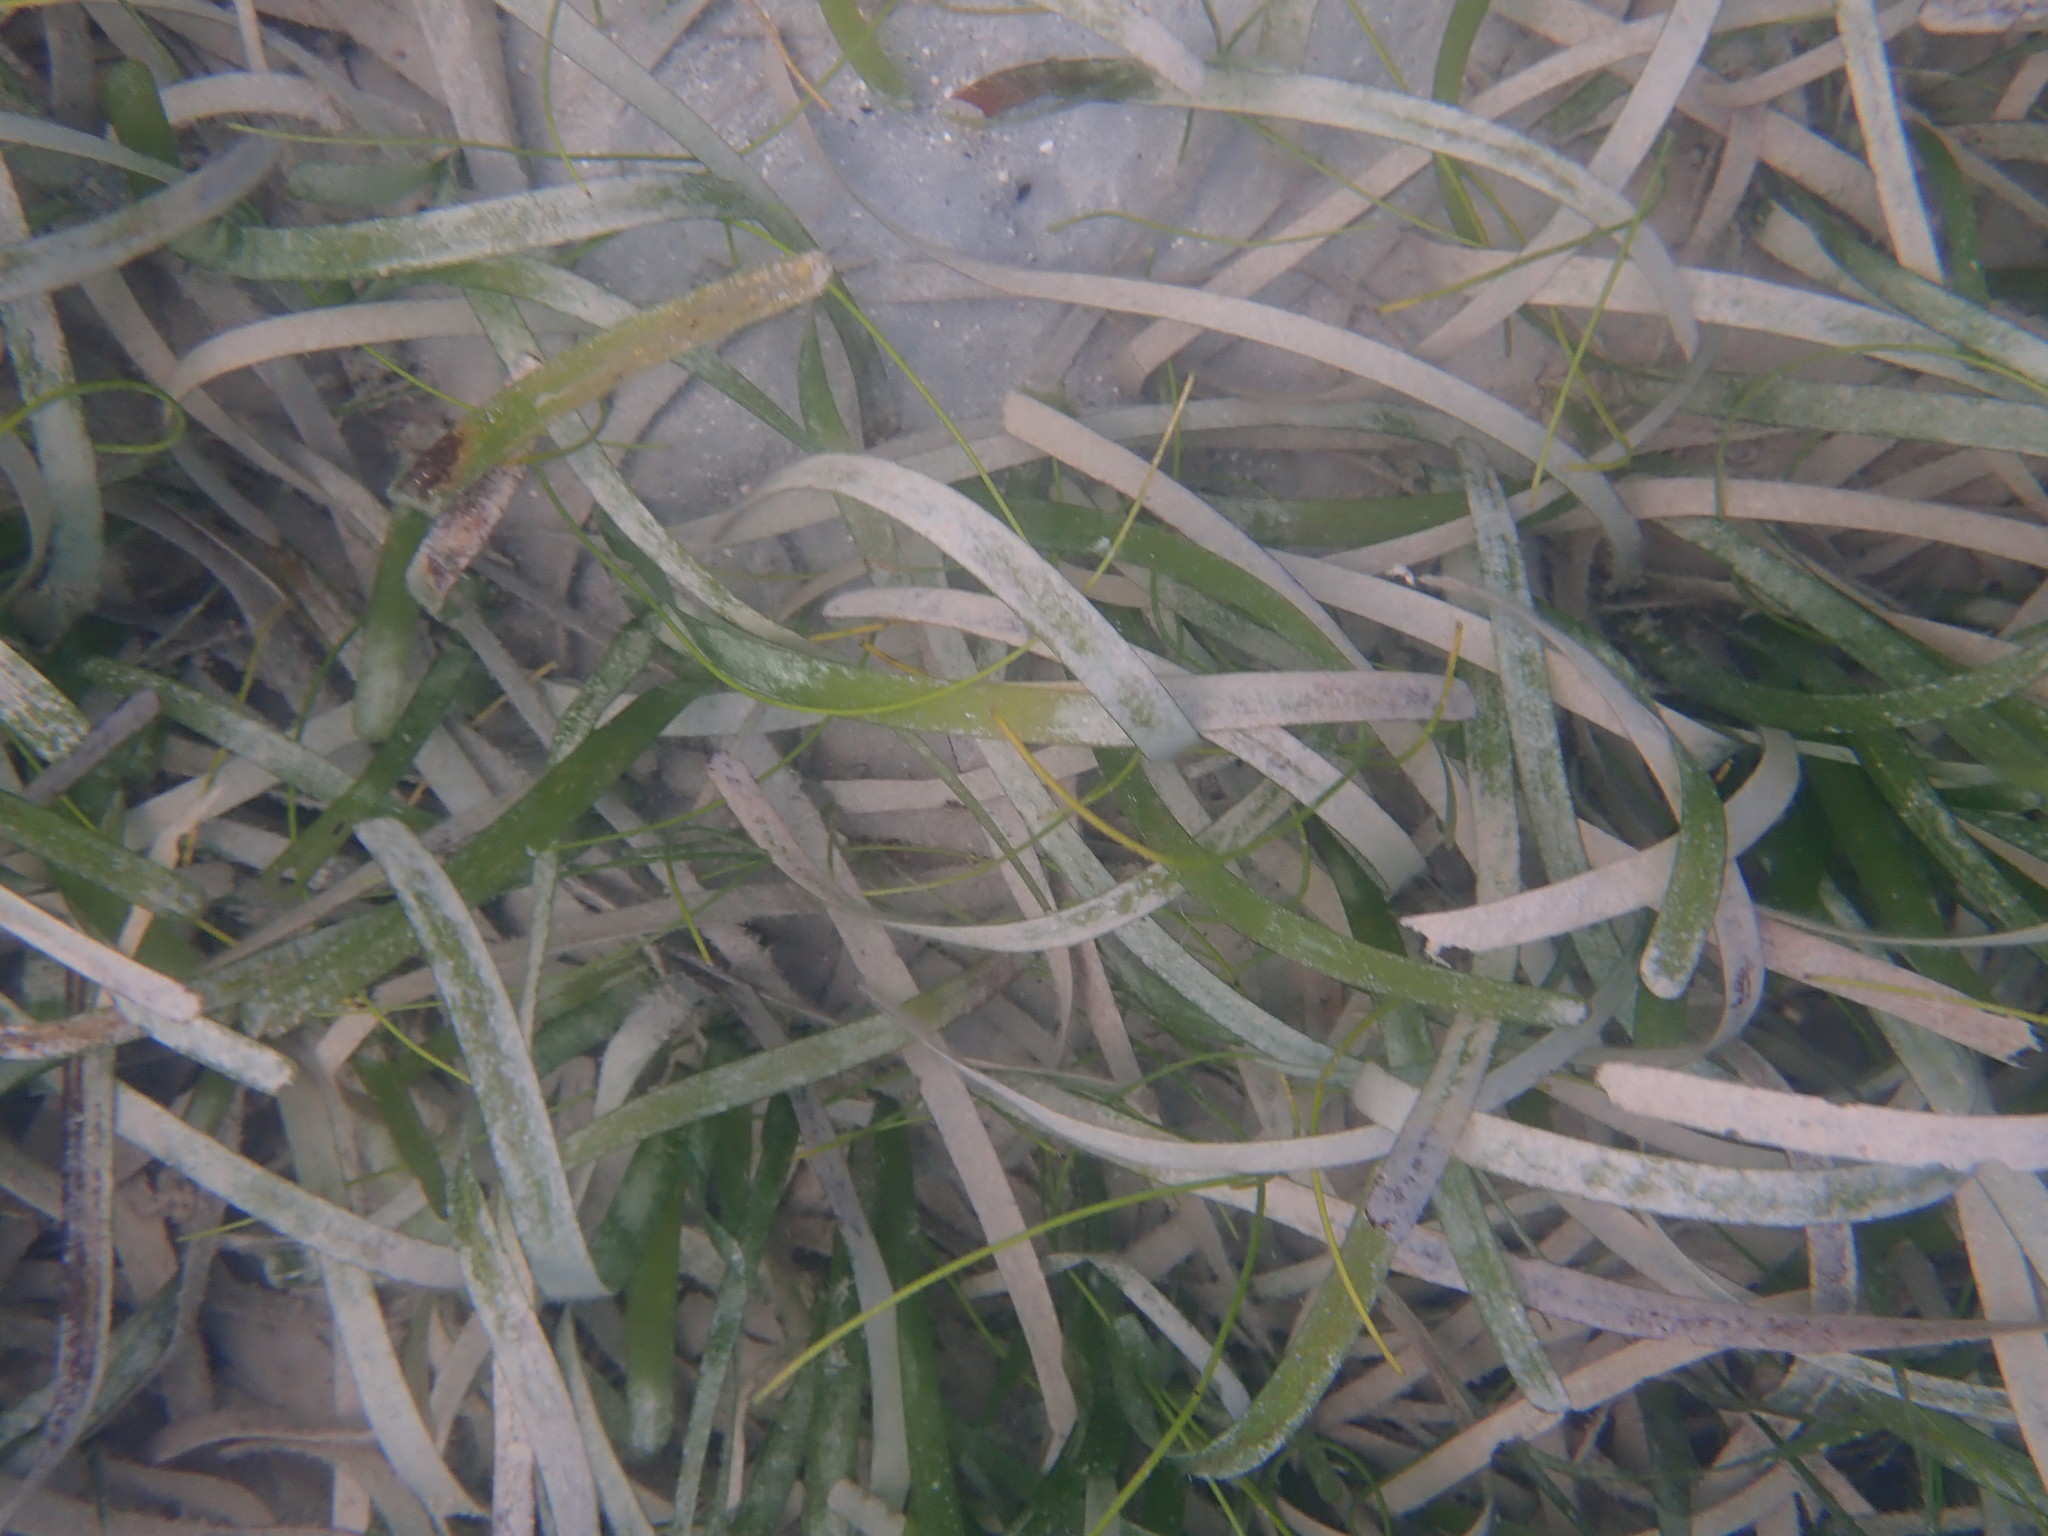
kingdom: Plantae
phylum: Tracheophyta
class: Liliopsida
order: Alismatales
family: Hydrocharitaceae
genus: Thalassia
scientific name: Thalassia testudinum
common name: Species code: tt
